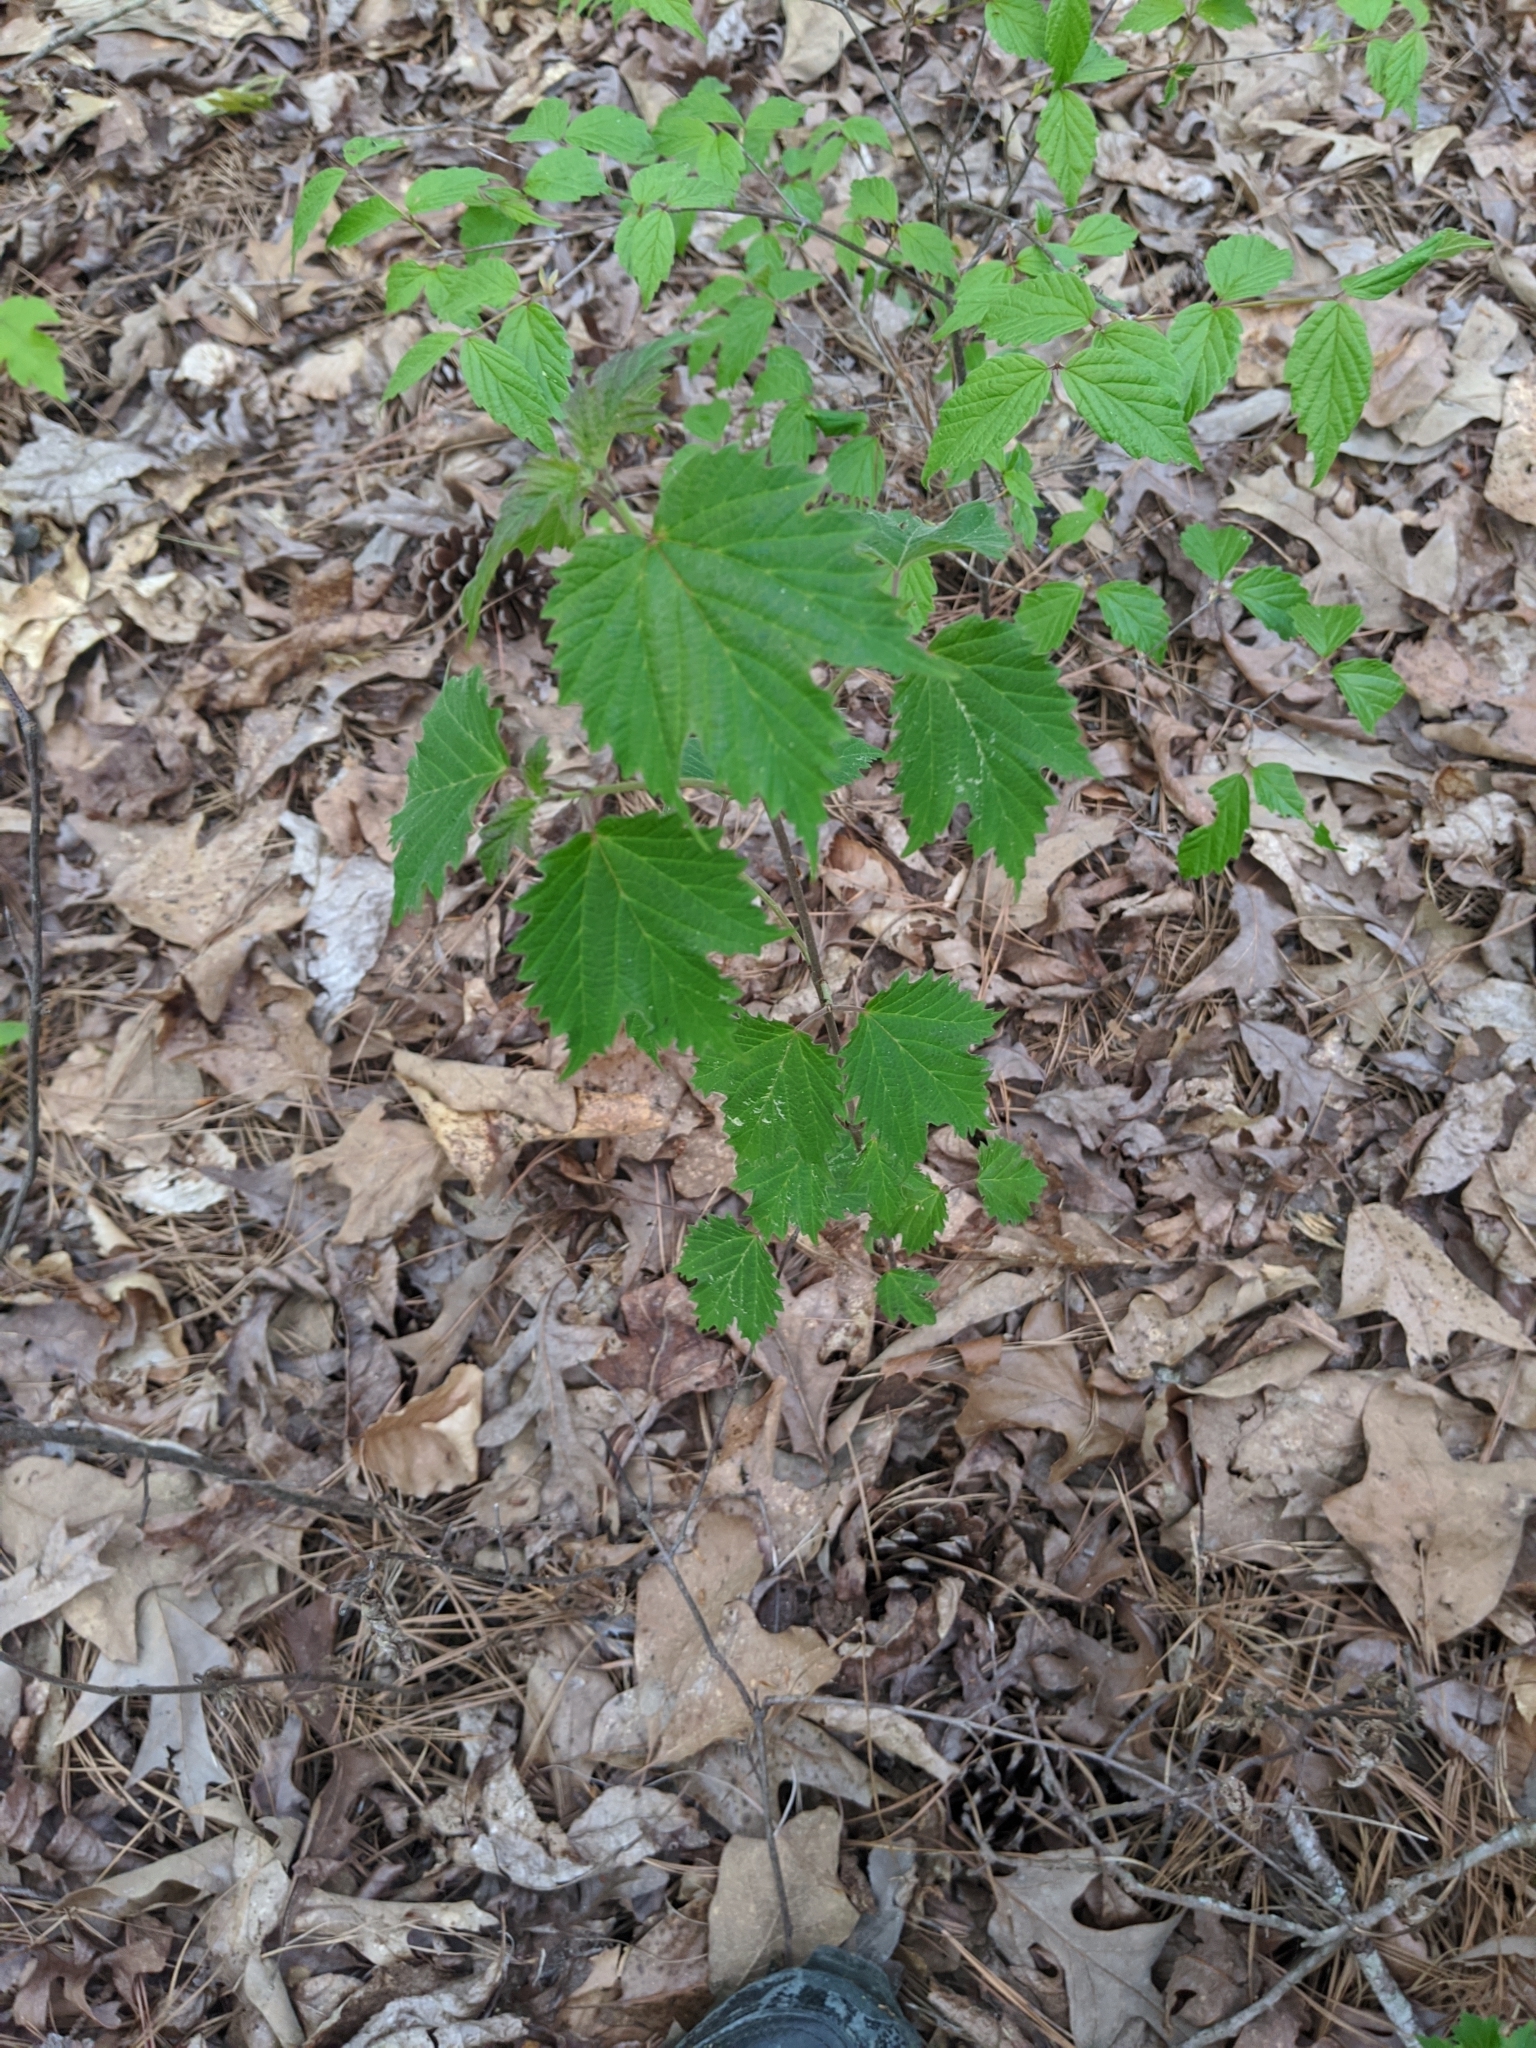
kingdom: Plantae
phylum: Tracheophyta
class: Magnoliopsida
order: Dipsacales
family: Viburnaceae
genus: Viburnum
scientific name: Viburnum acerifolium
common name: Dockmackie
